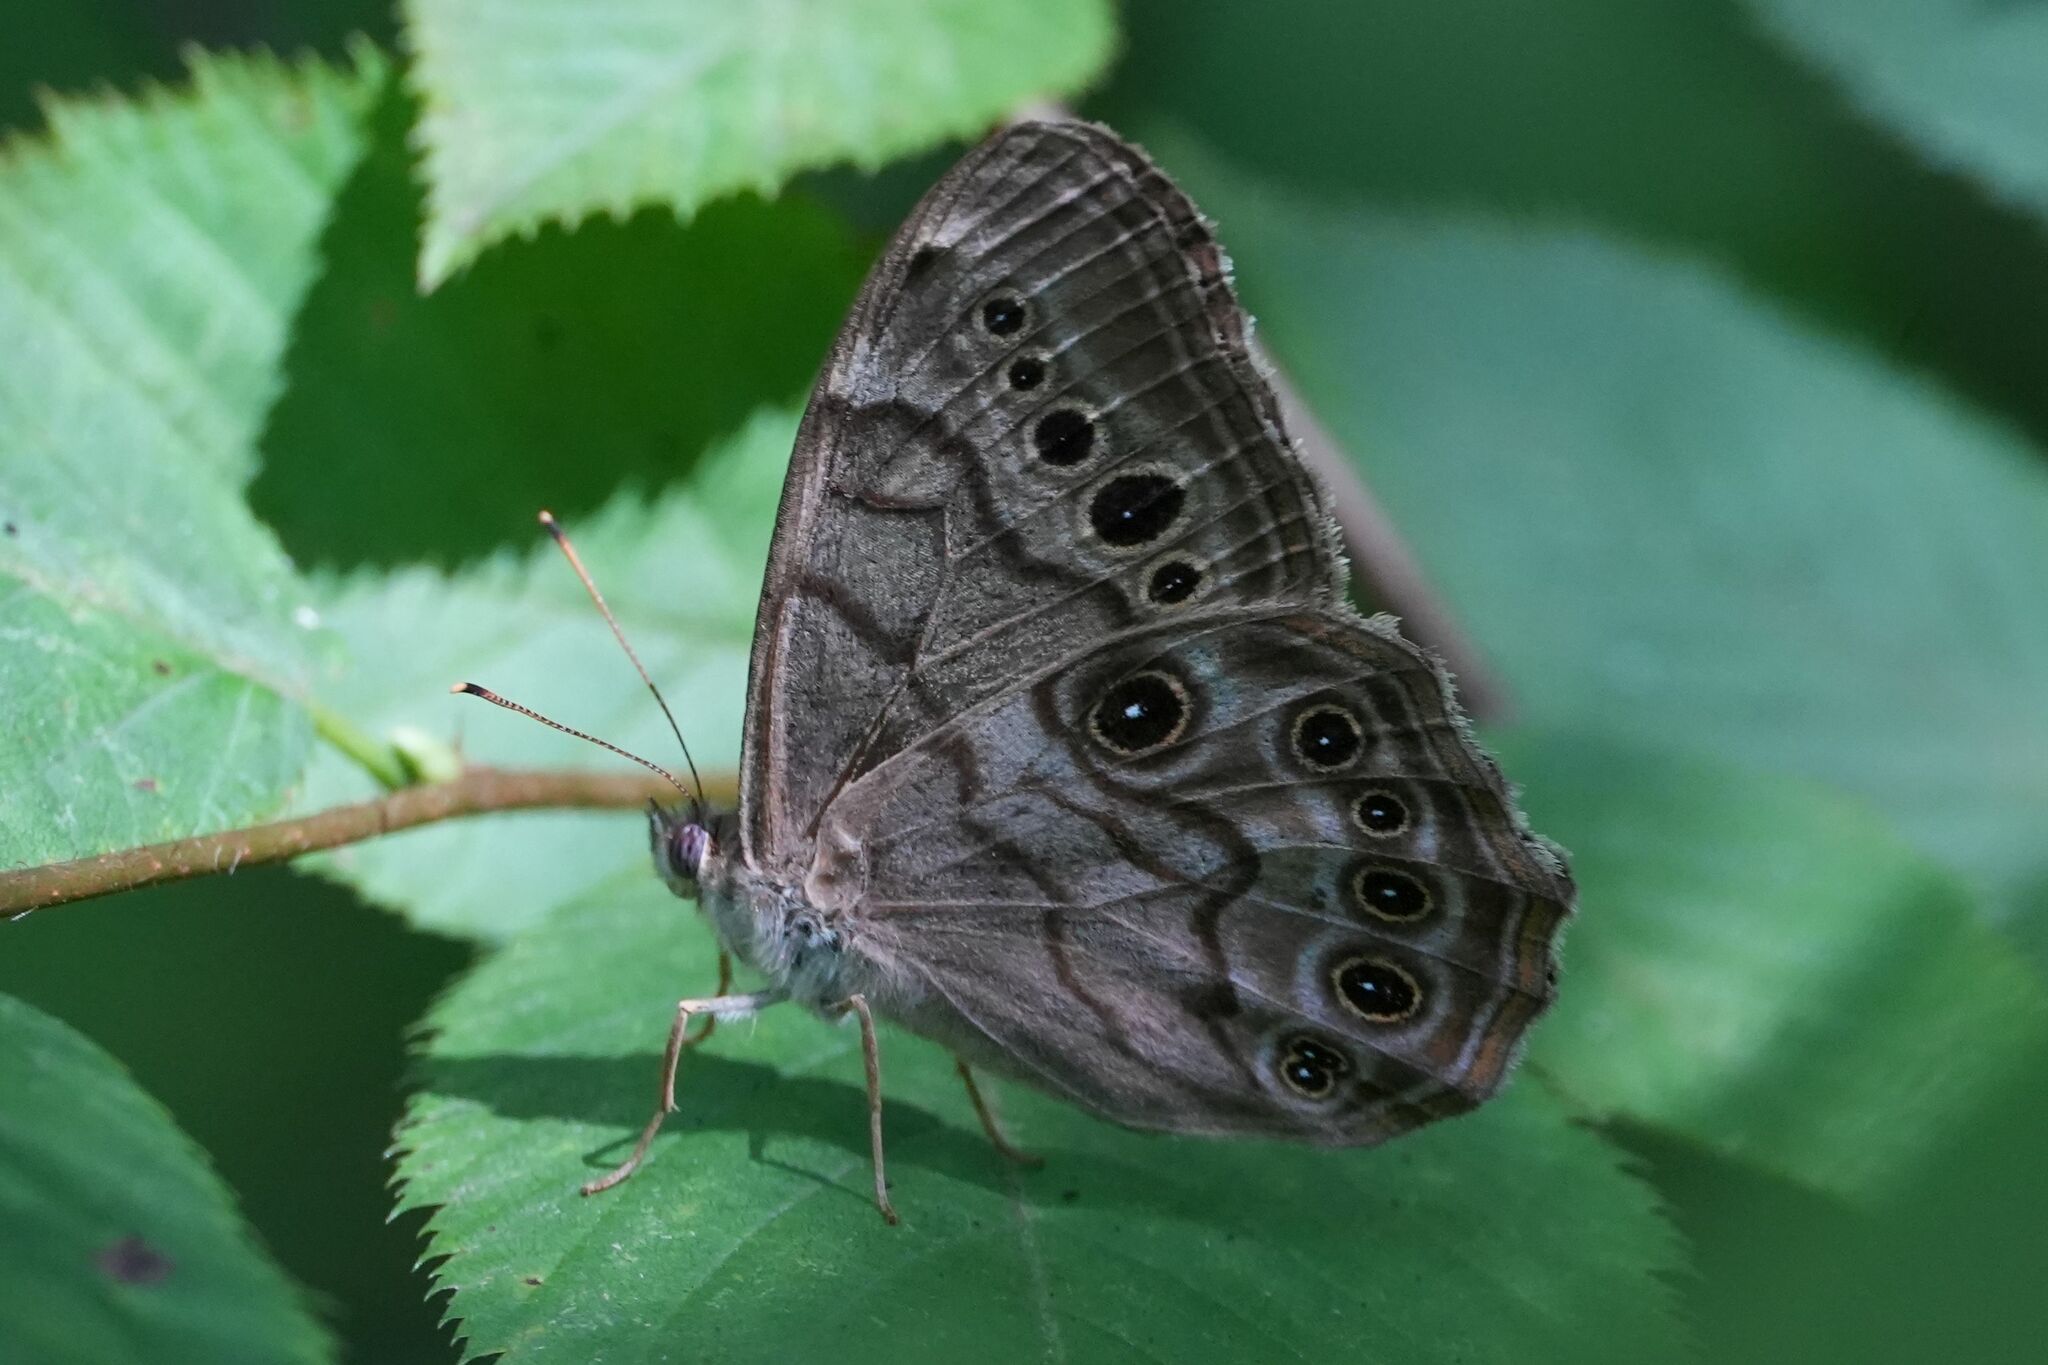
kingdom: Animalia
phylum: Arthropoda
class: Insecta
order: Lepidoptera
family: Nymphalidae
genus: Lethe
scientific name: Lethe anthedon
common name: Northern pearly-eye
